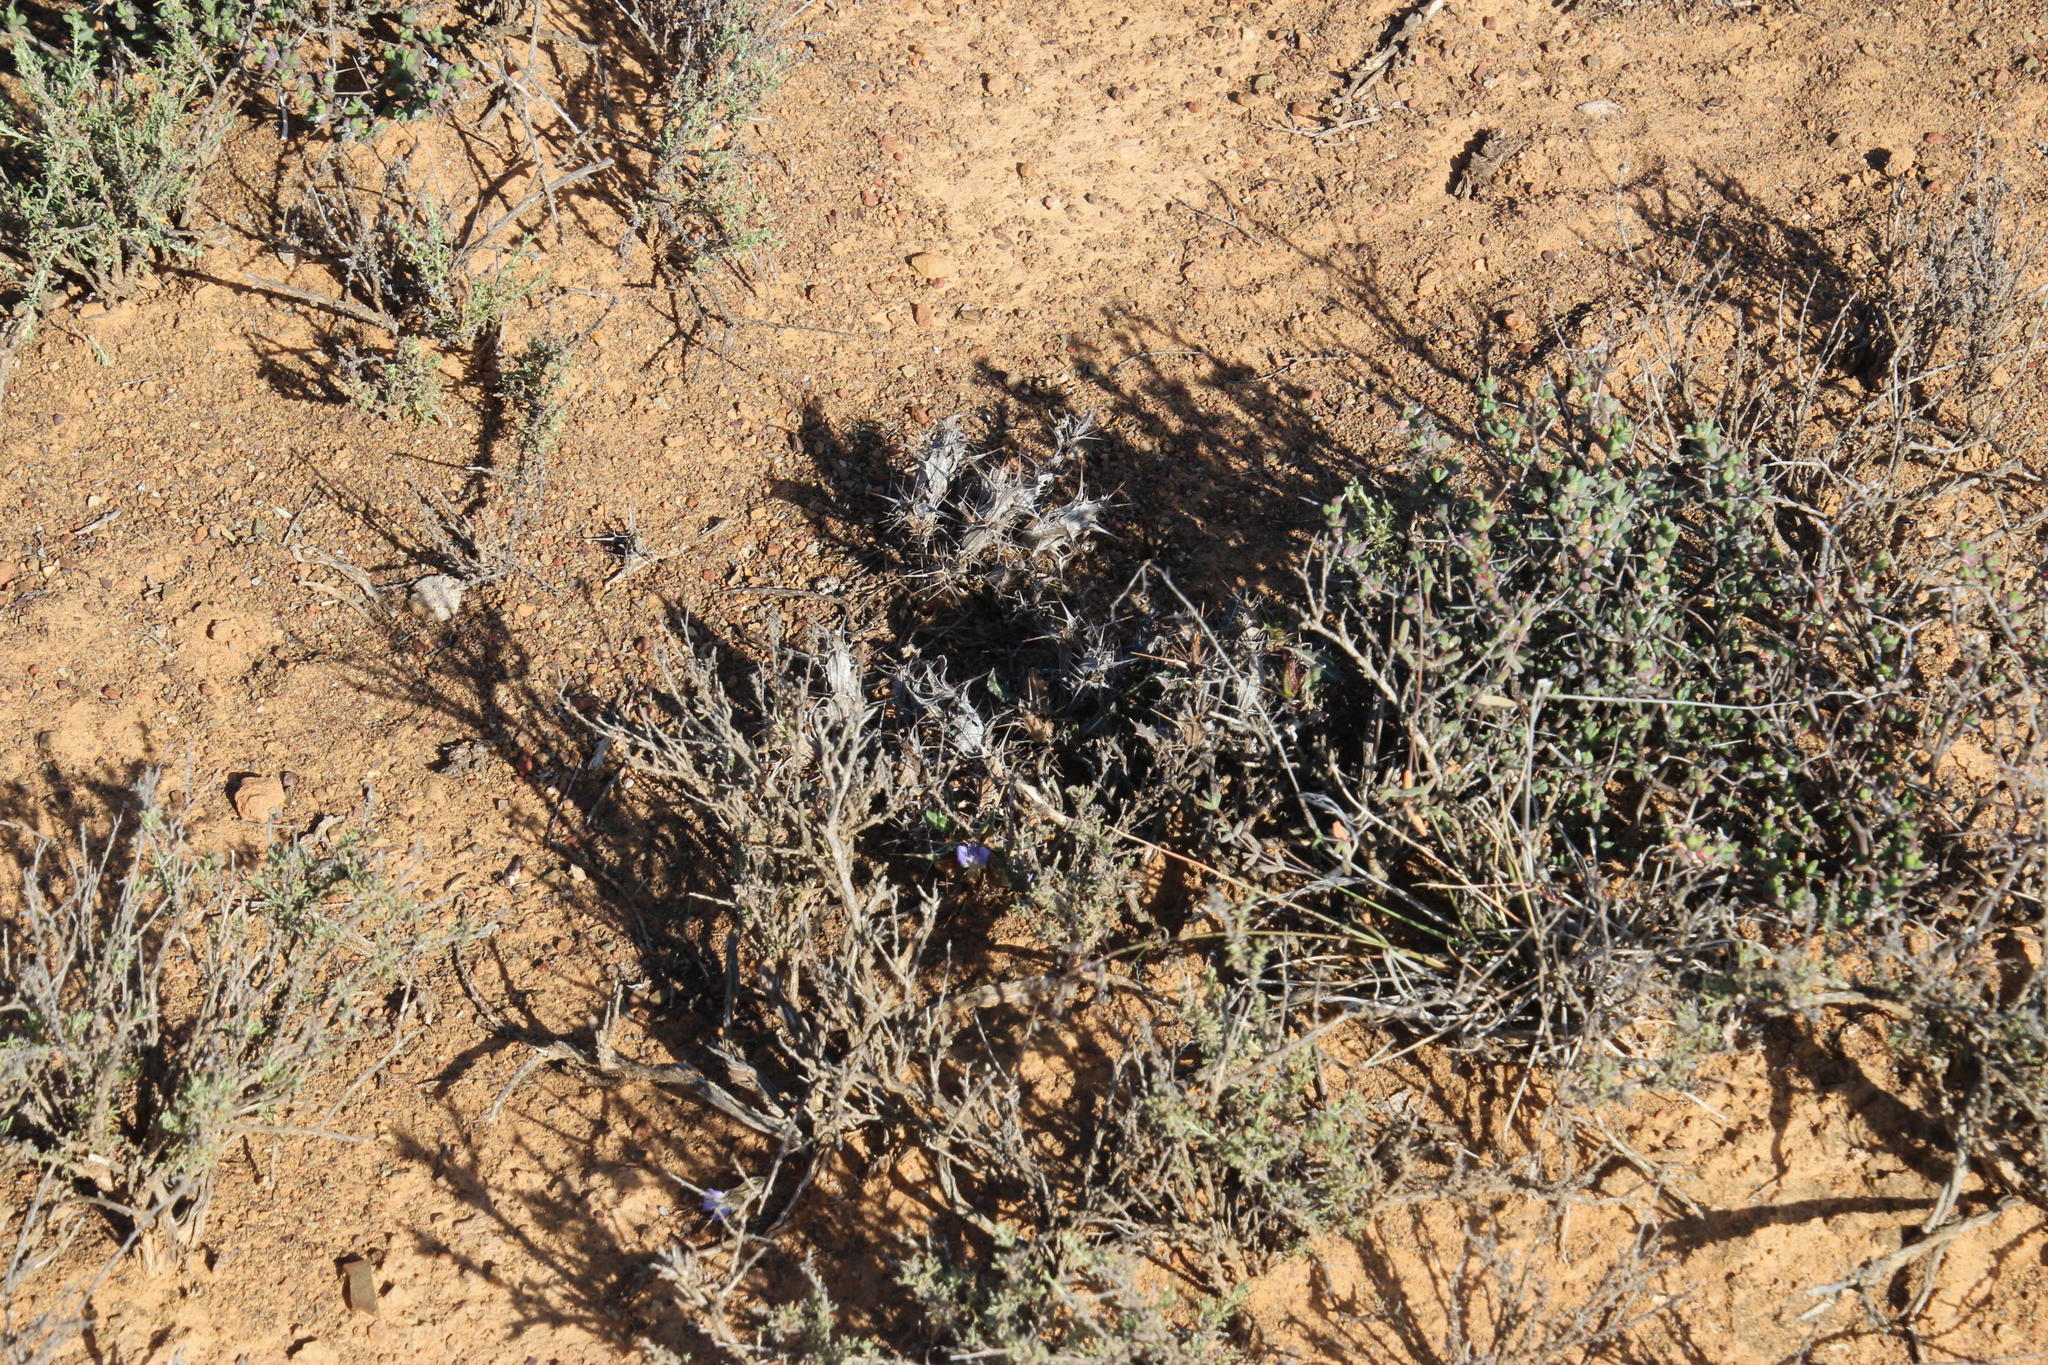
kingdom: Plantae
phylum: Tracheophyta
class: Magnoliopsida
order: Lamiales
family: Acanthaceae
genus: Blepharis
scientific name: Blepharis mitrata
